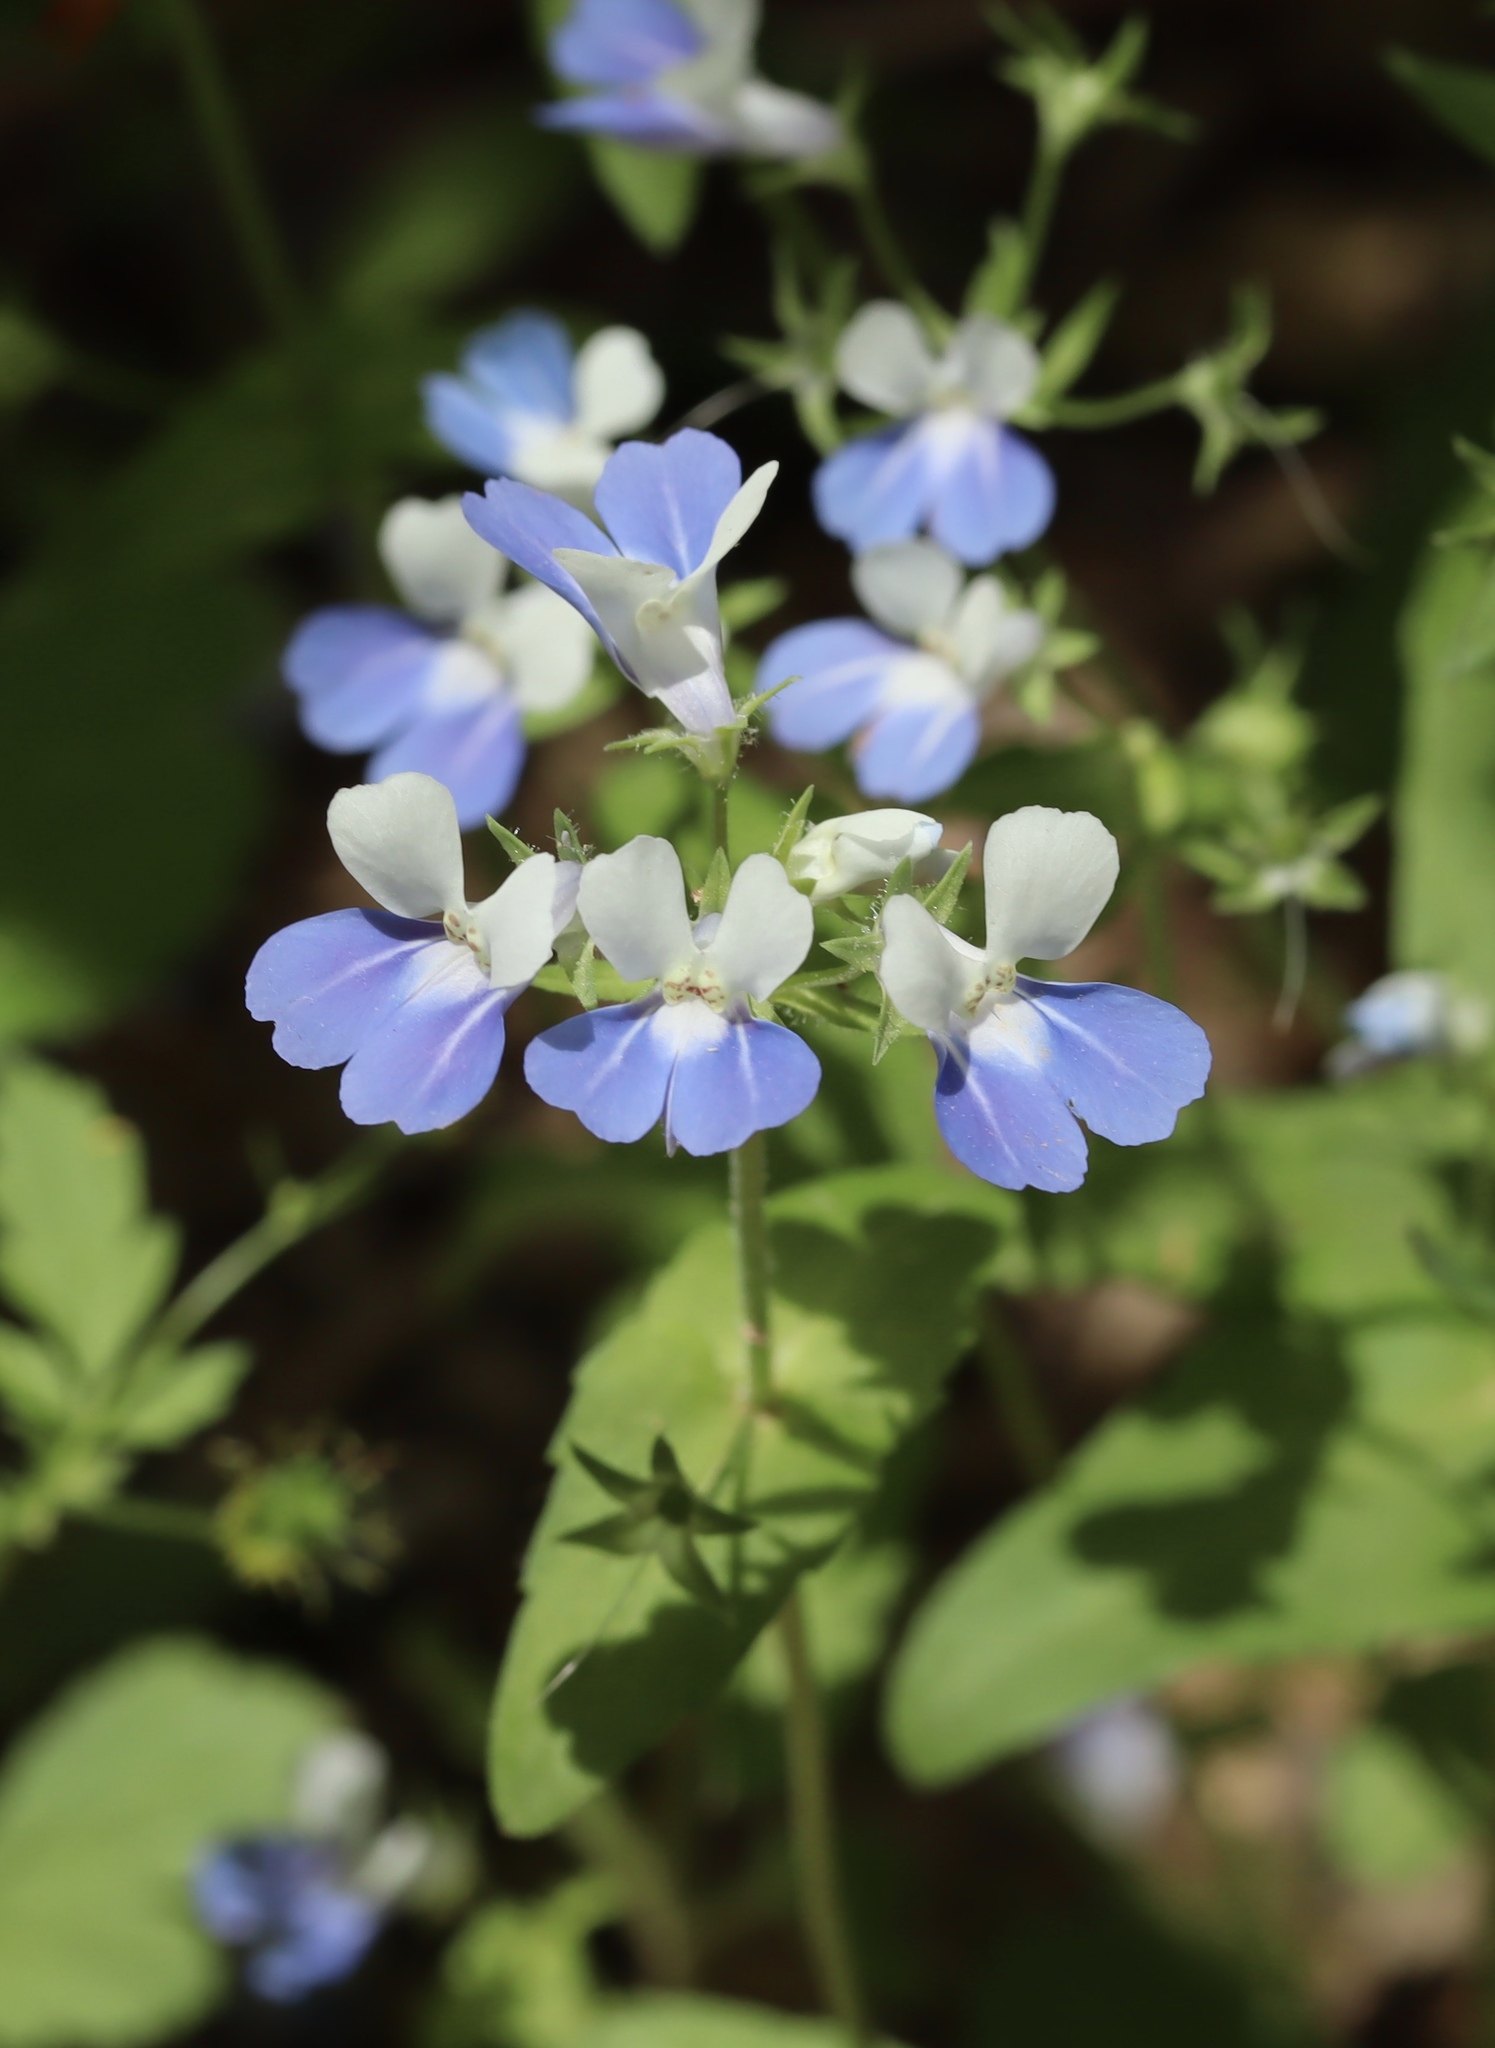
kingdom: Plantae
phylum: Tracheophyta
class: Magnoliopsida
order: Lamiales
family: Plantaginaceae
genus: Collinsia
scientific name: Collinsia verna
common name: Broad-leaved collinsia
